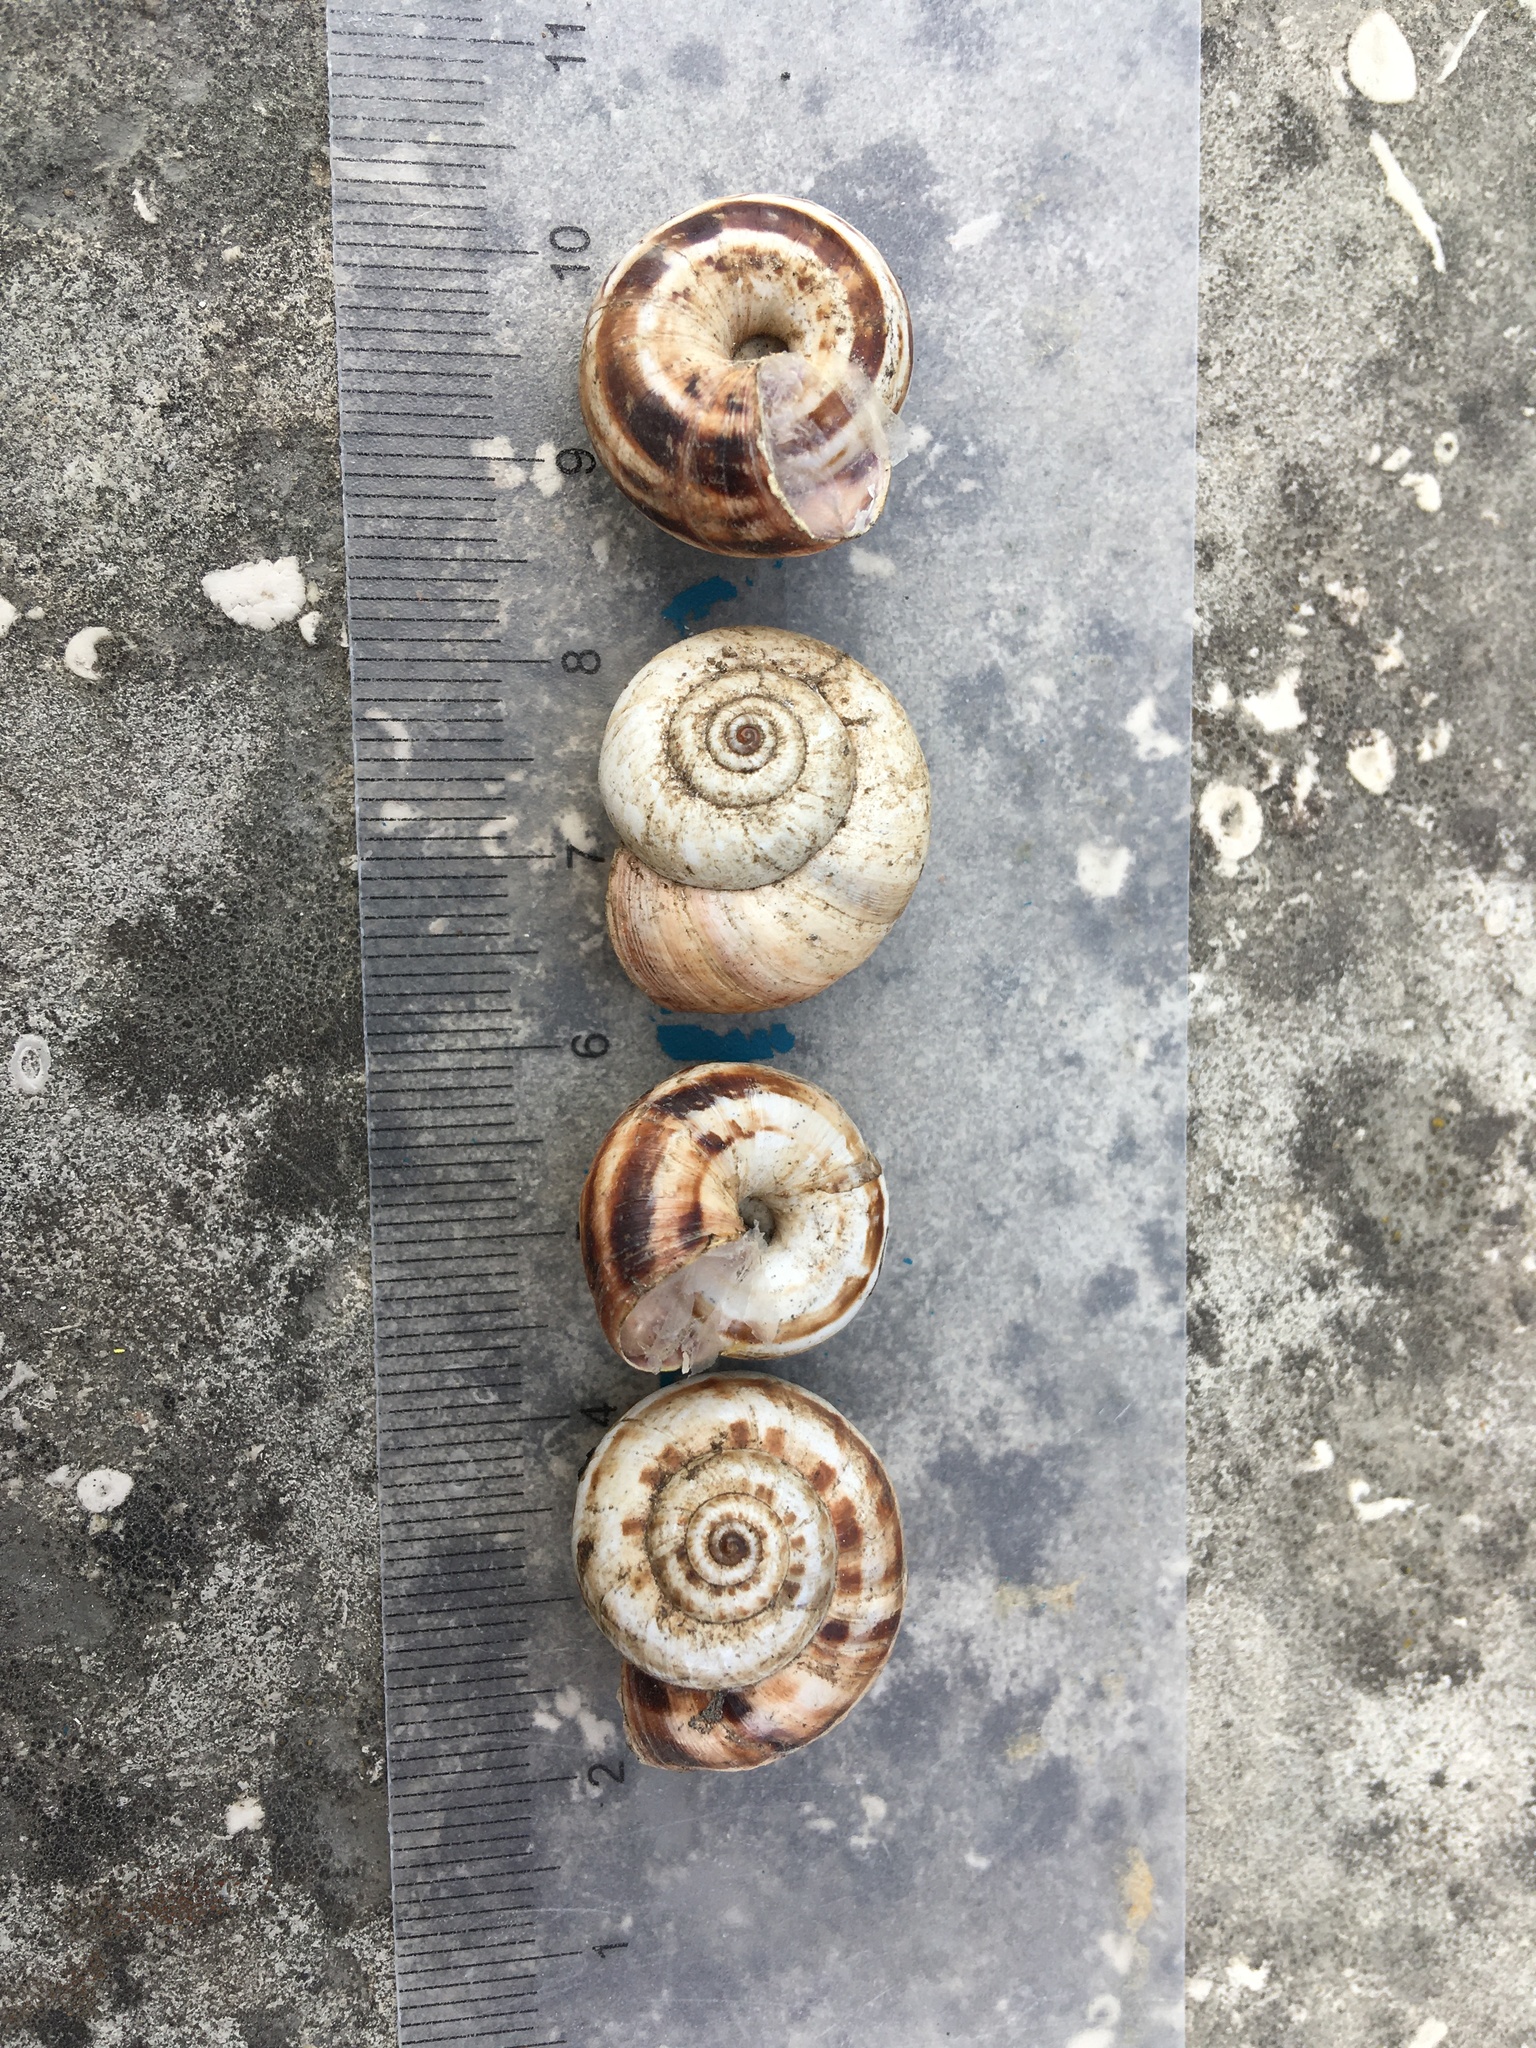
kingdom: Animalia
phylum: Mollusca
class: Gastropoda
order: Stylommatophora
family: Geomitridae
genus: Xeropicta
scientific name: Xeropicta derbentina
